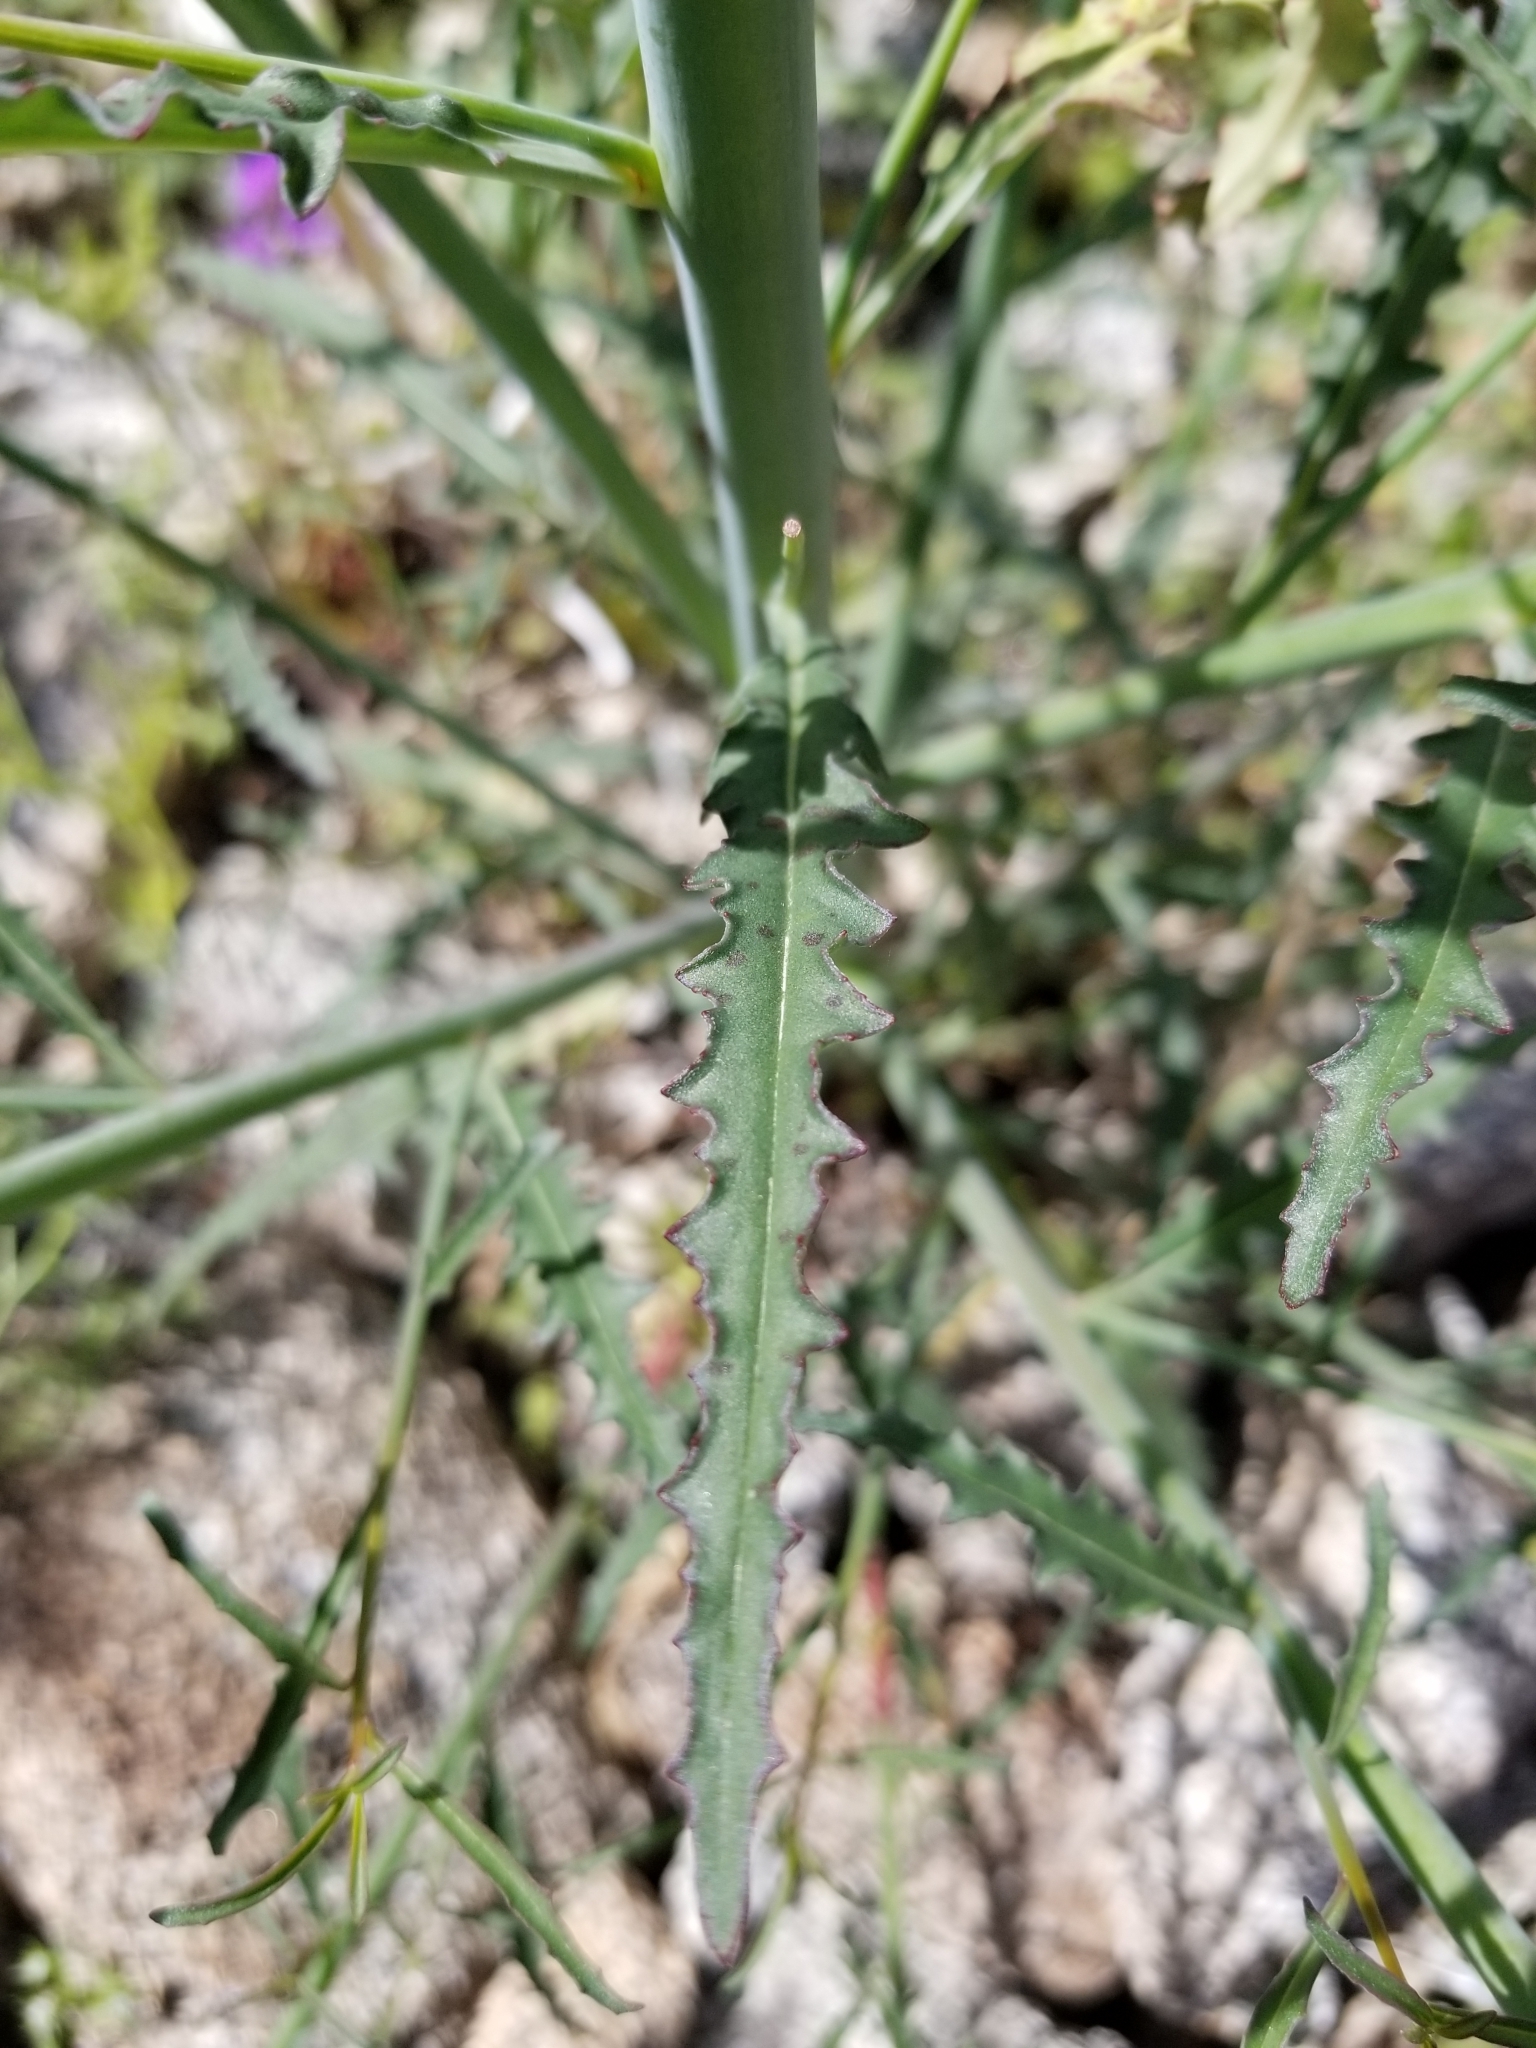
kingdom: Plantae
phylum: Tracheophyta
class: Magnoliopsida
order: Myrtales
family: Onagraceae
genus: Eulobus
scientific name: Eulobus californicus
